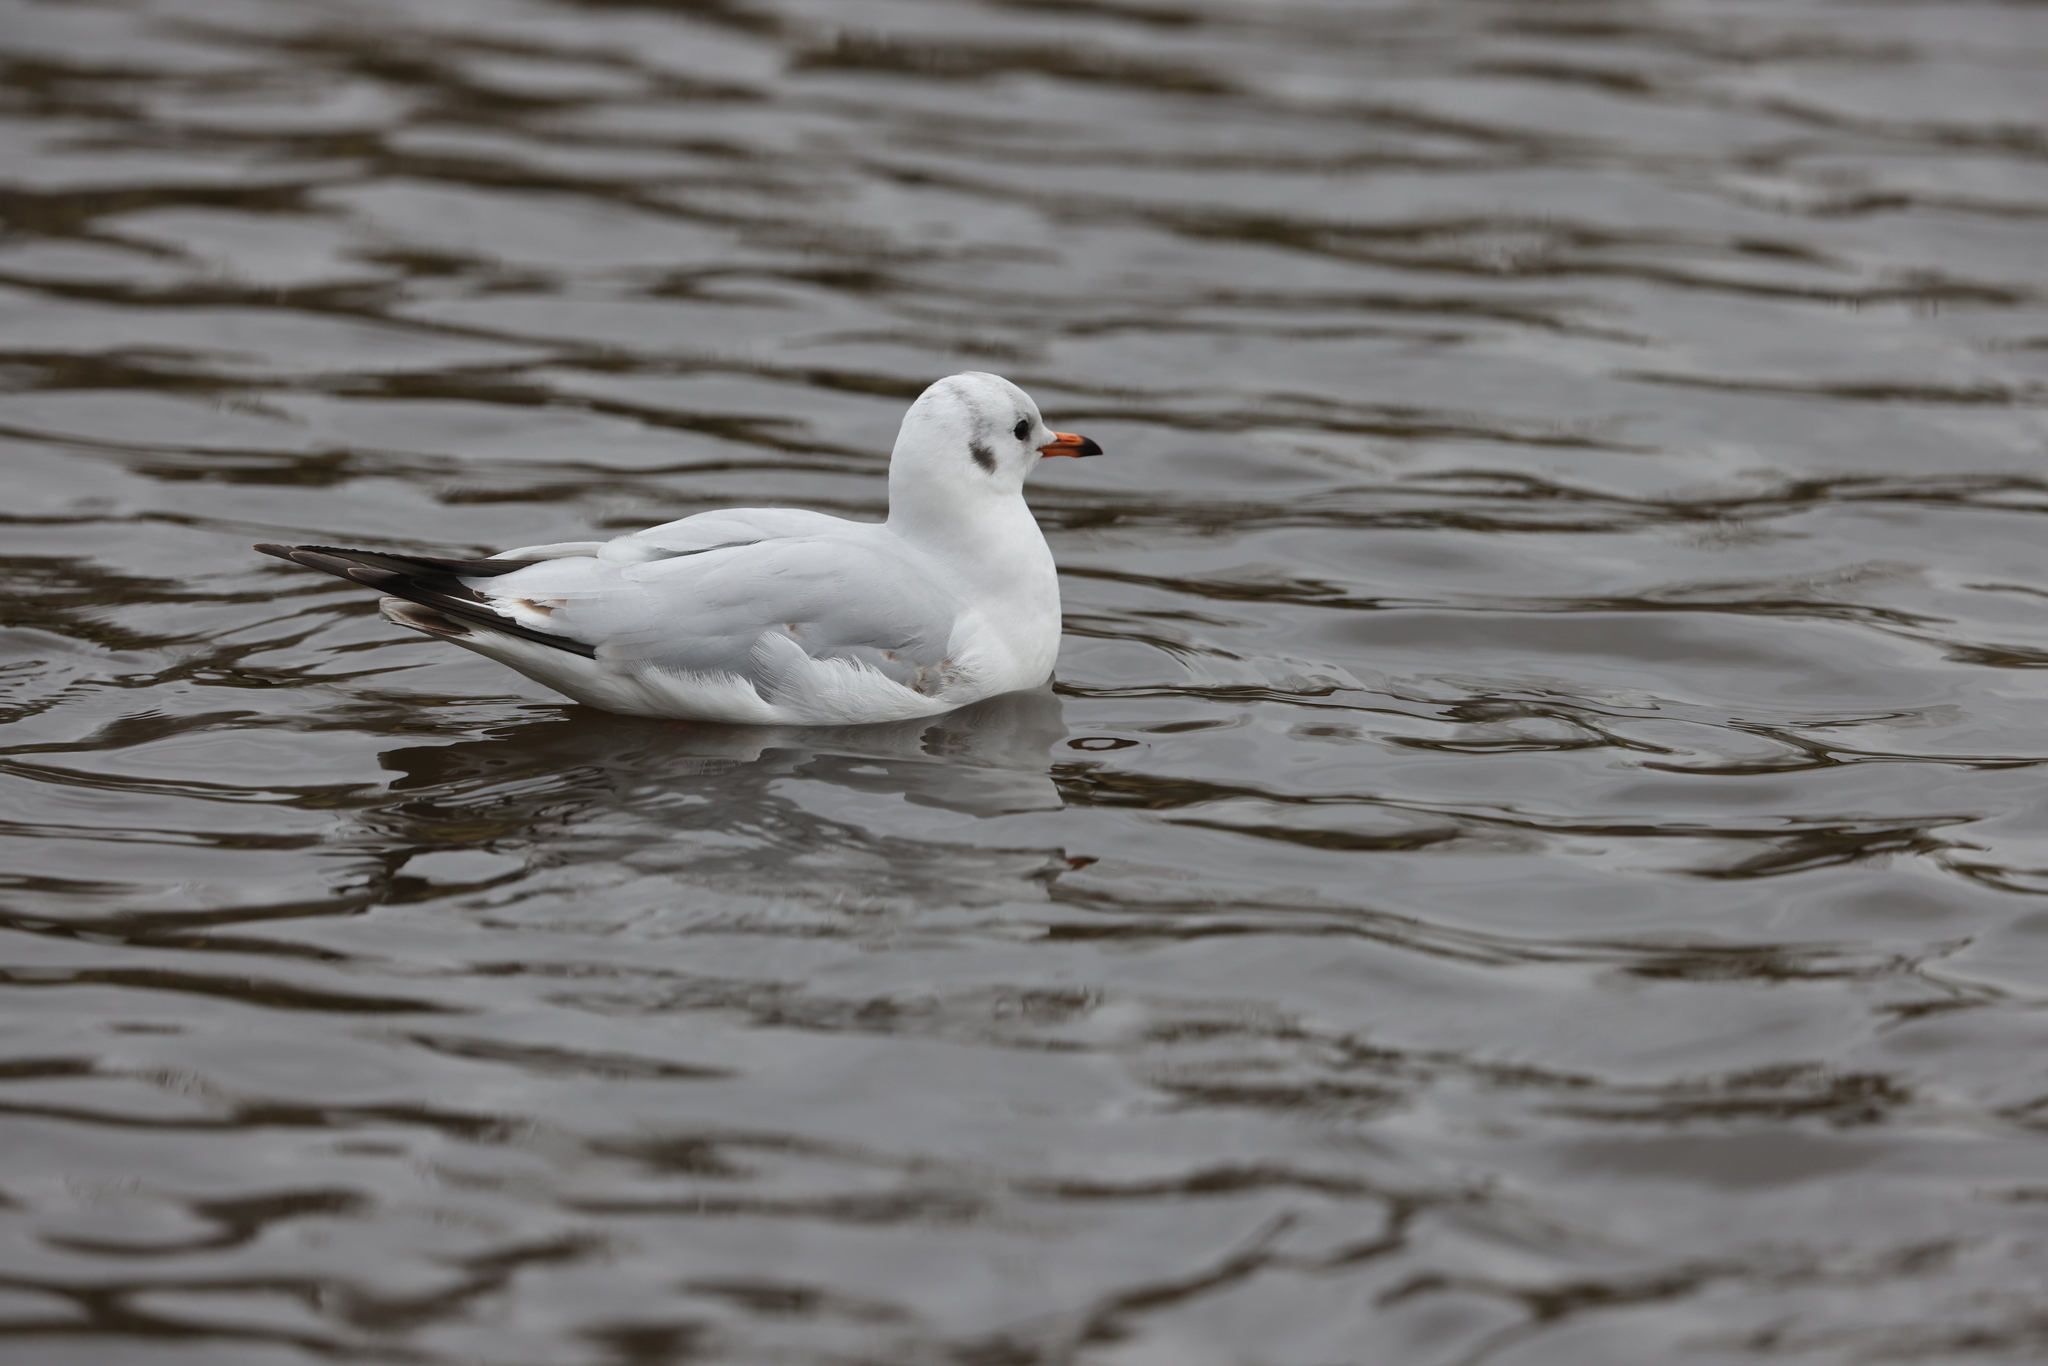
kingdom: Animalia
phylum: Chordata
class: Aves
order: Charadriiformes
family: Laridae
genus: Chroicocephalus
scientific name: Chroicocephalus ridibundus
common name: Black-headed gull
